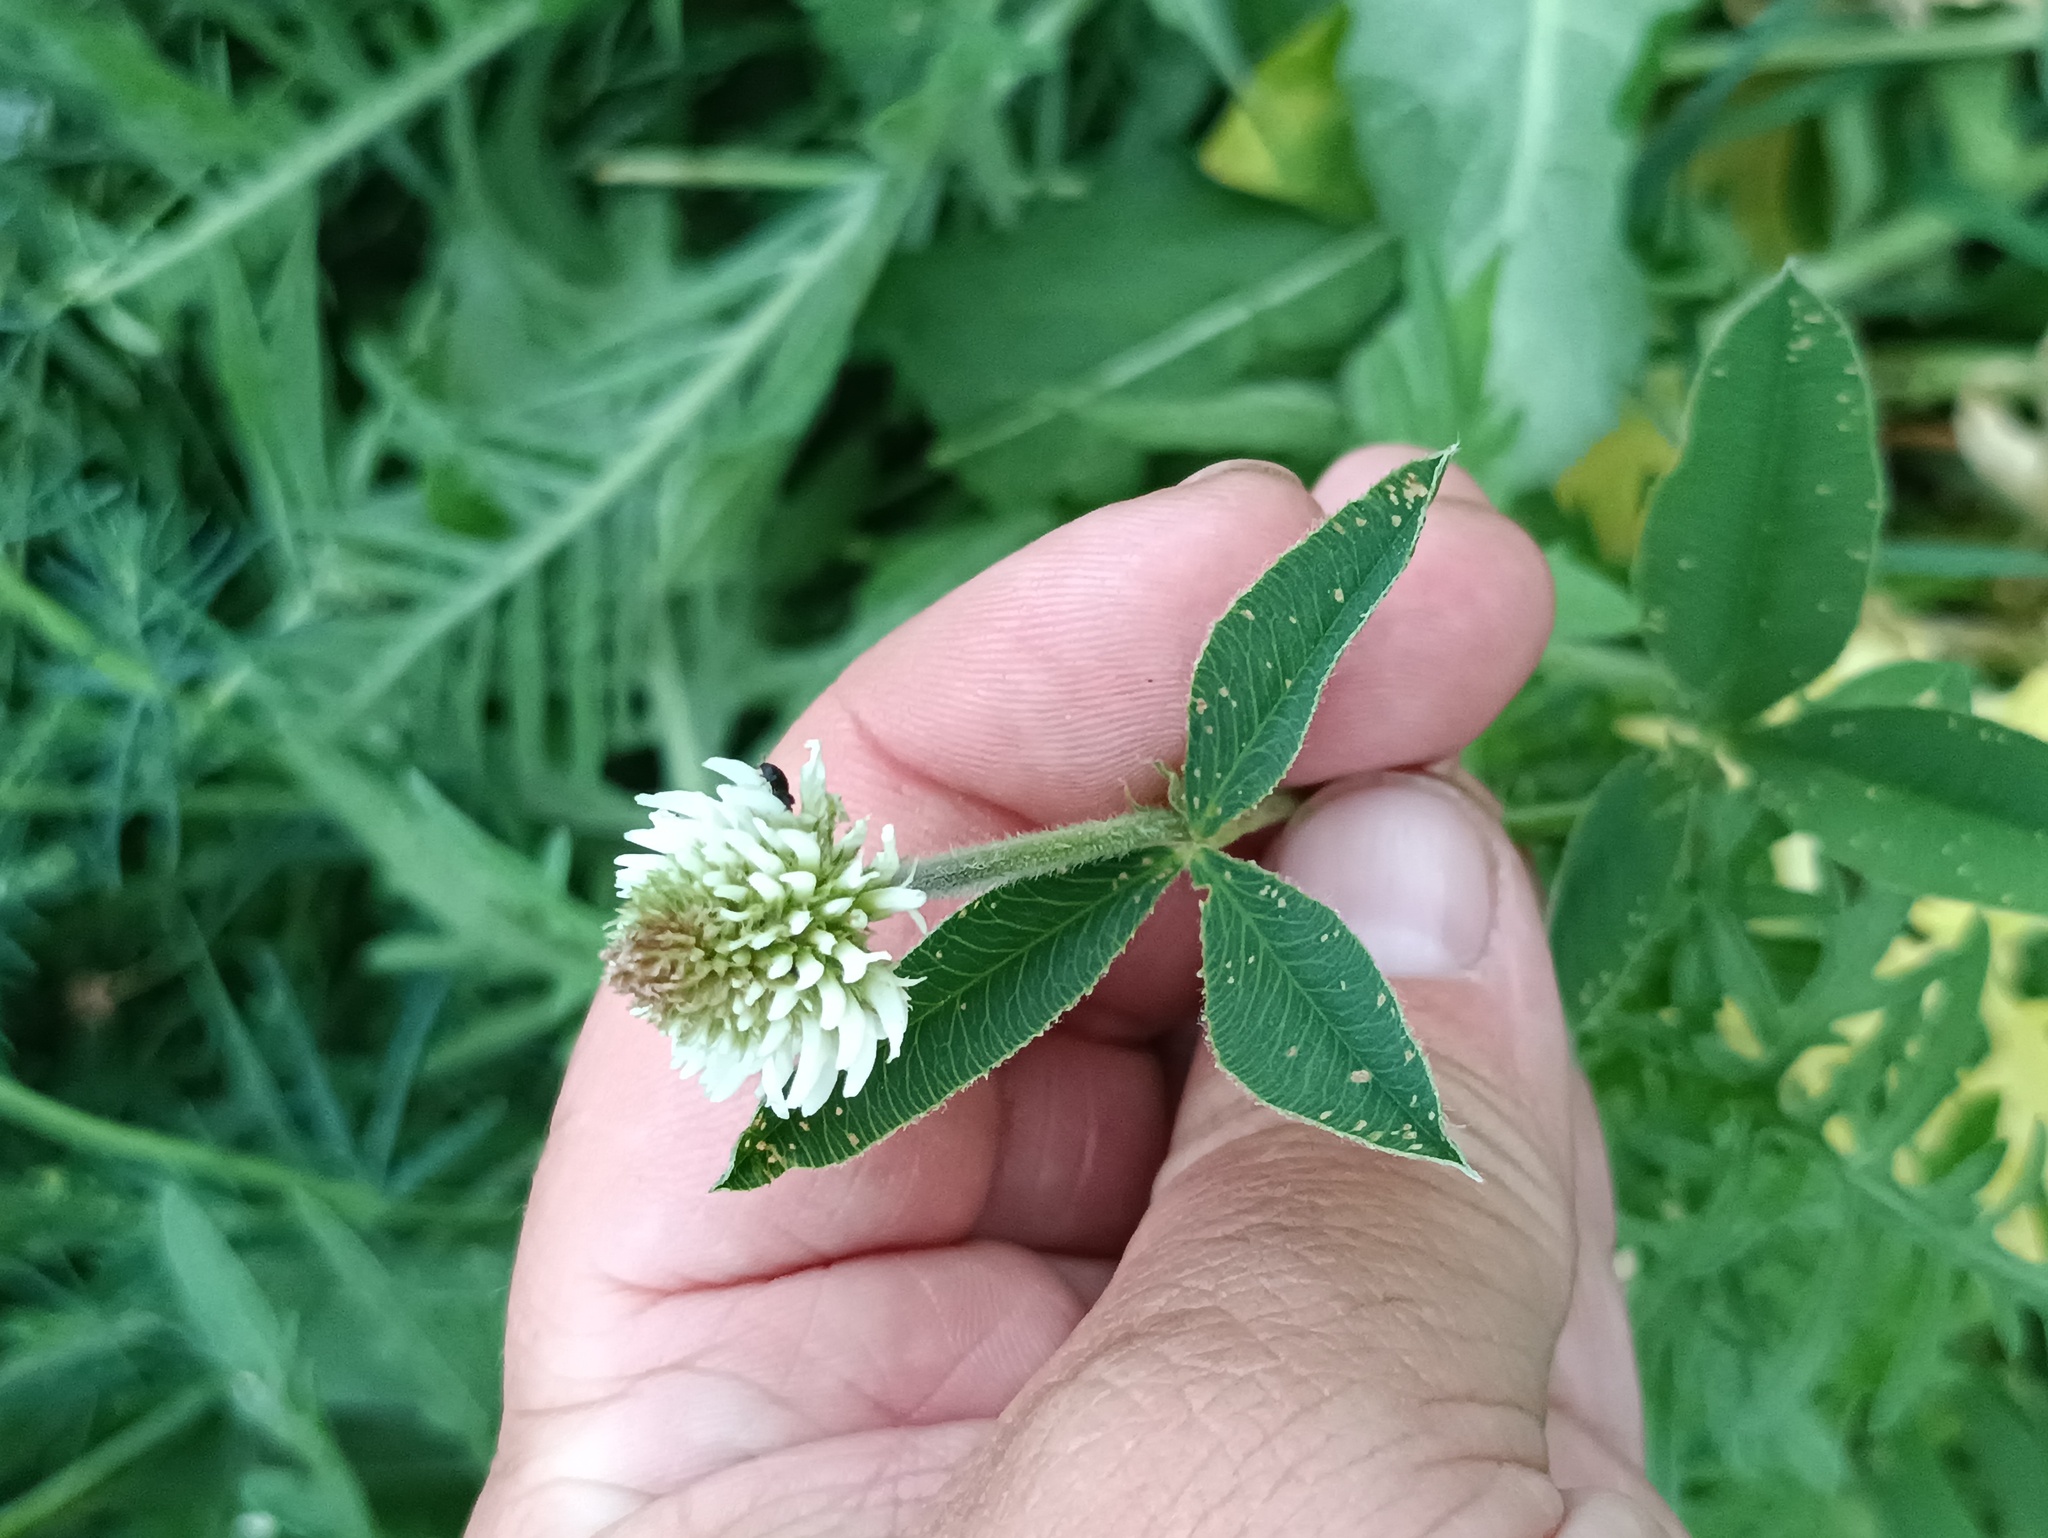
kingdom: Plantae
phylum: Tracheophyta
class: Magnoliopsida
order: Fabales
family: Fabaceae
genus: Trifolium
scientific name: Trifolium montanum
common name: Mountain clover
